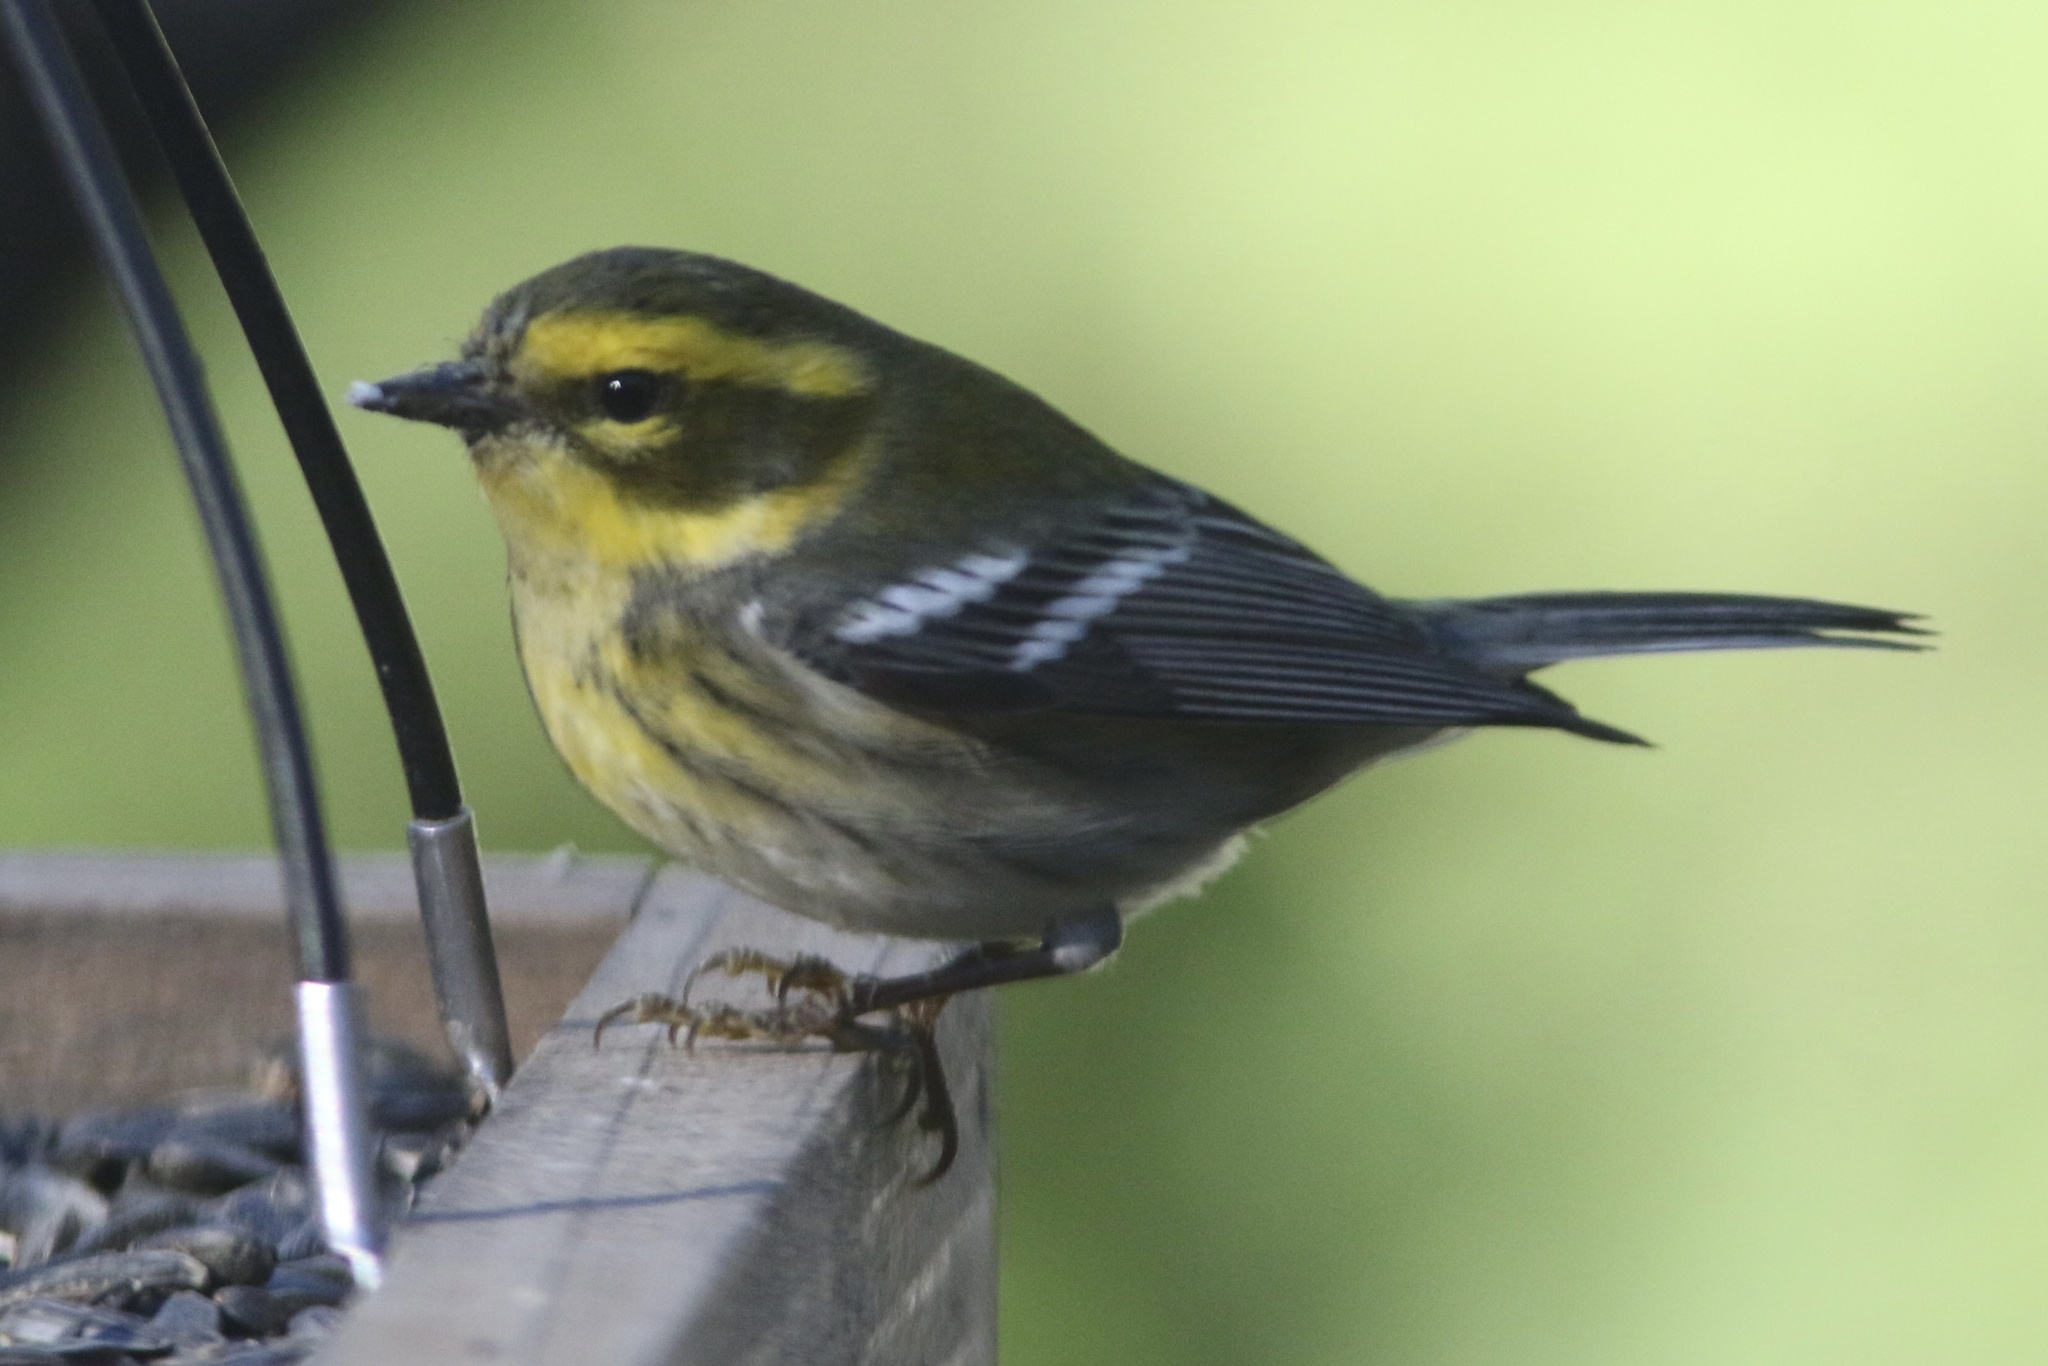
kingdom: Animalia
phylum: Chordata
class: Aves
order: Passeriformes
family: Parulidae
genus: Setophaga
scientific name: Setophaga townsendi
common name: Townsend's warbler
